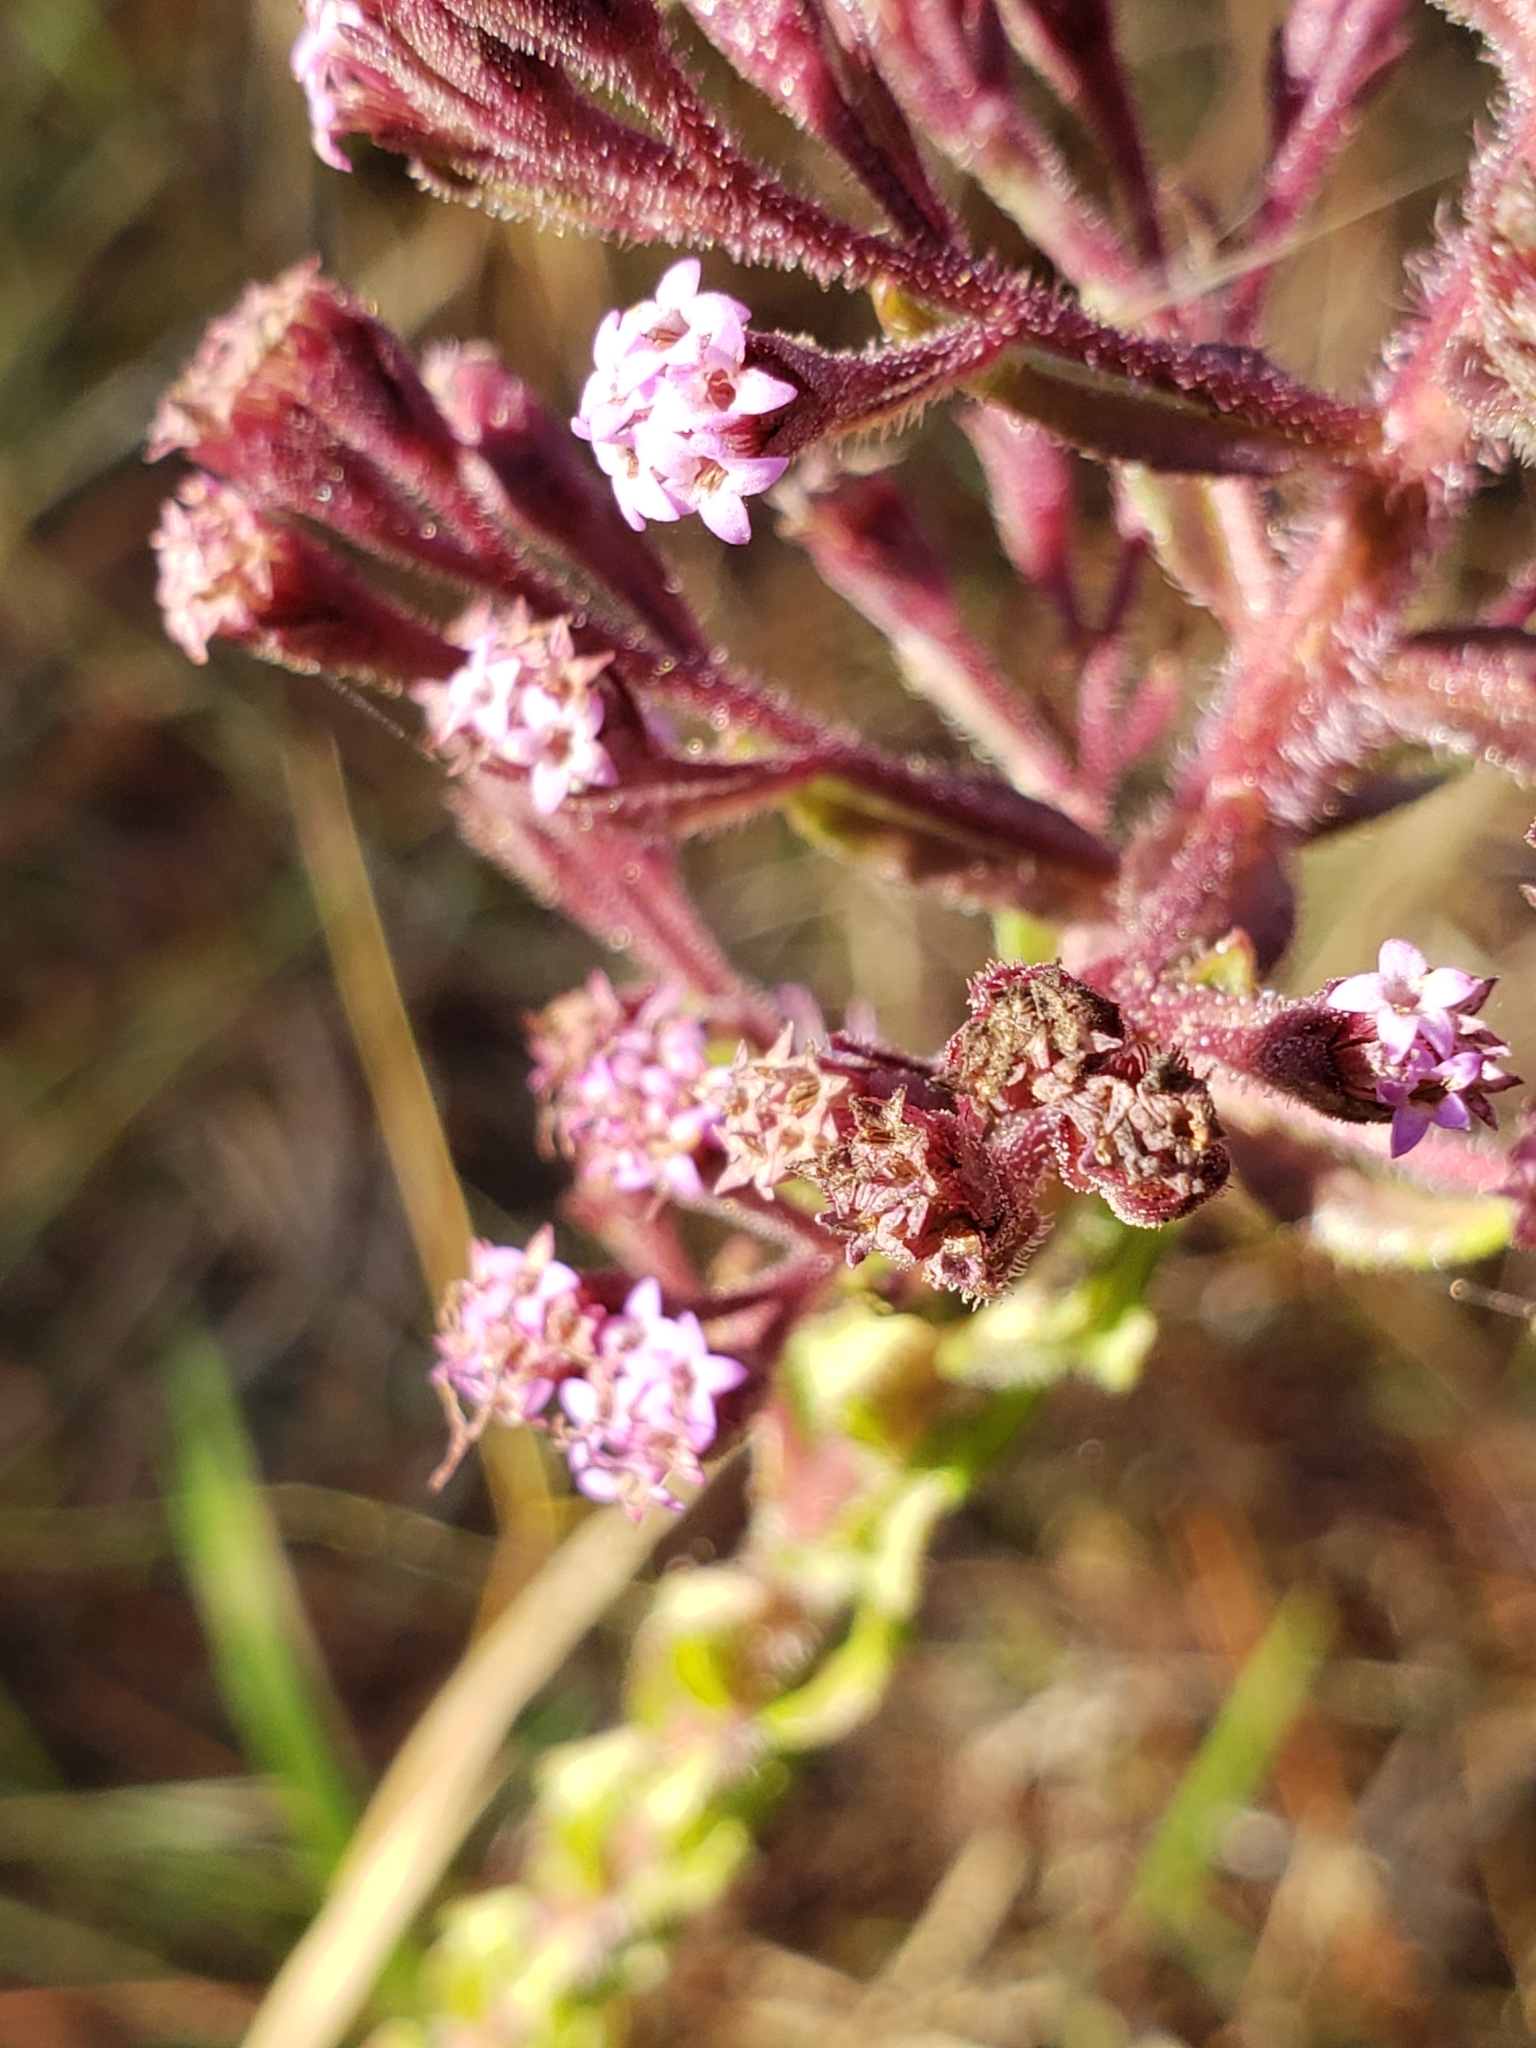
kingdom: Plantae
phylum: Tracheophyta
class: Magnoliopsida
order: Asterales
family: Asteraceae
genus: Carphephorus
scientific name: Carphephorus paniculatus
